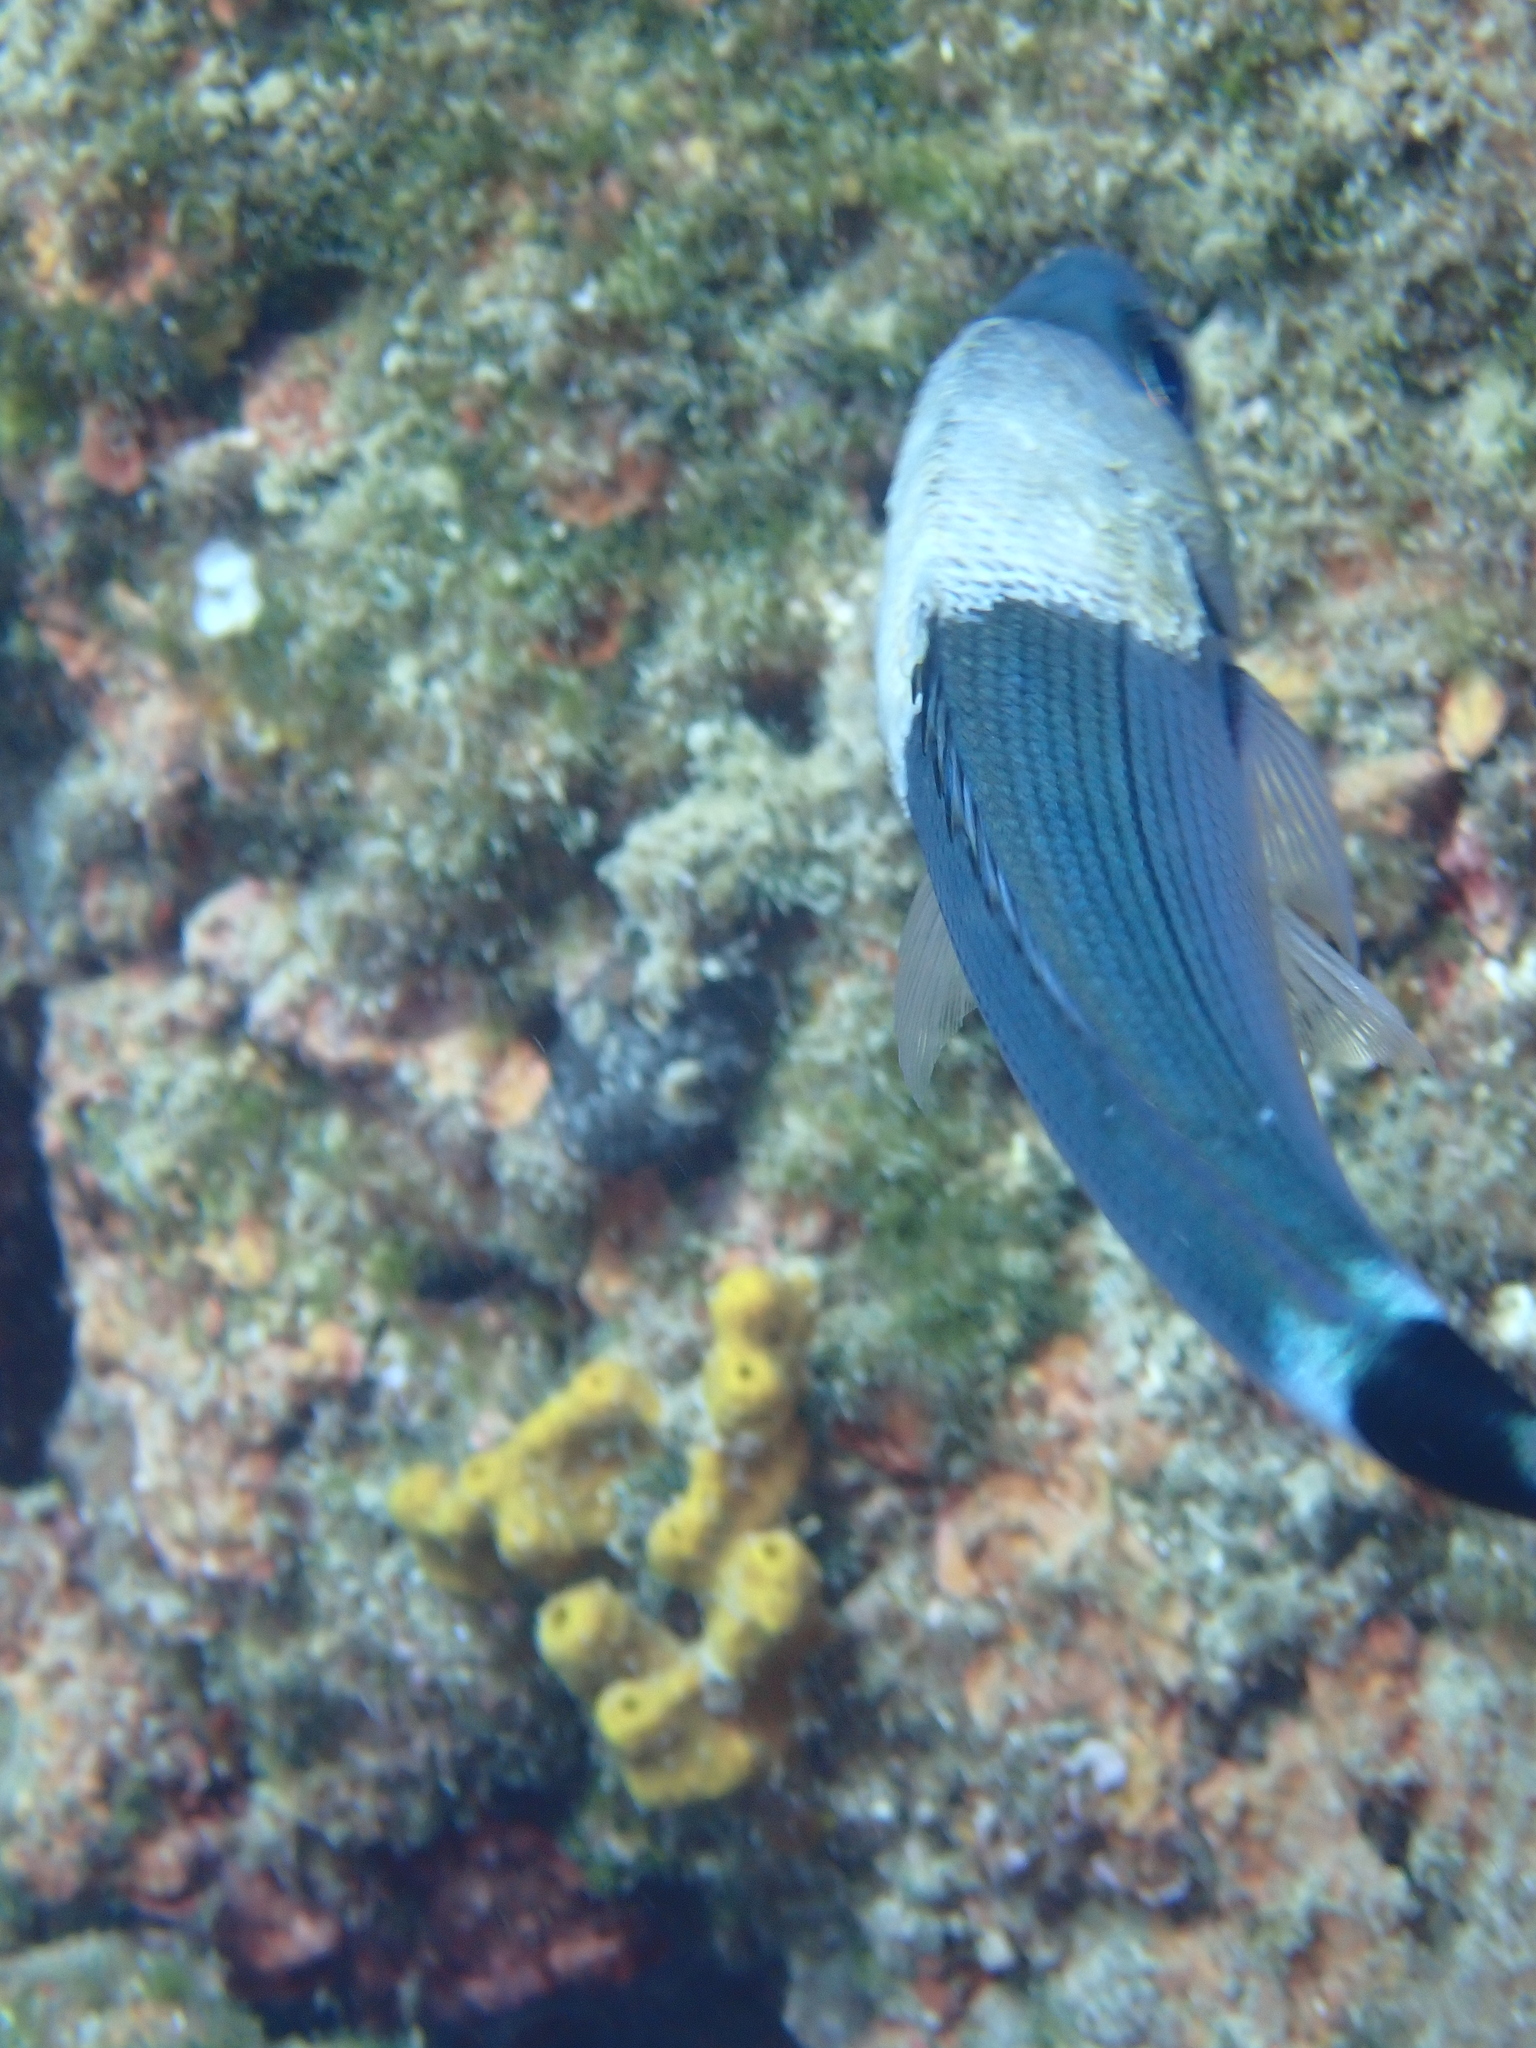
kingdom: Animalia
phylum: Chordata
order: Perciformes
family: Sparidae
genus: Oblada
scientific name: Oblada melanura
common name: Saddled seabream
